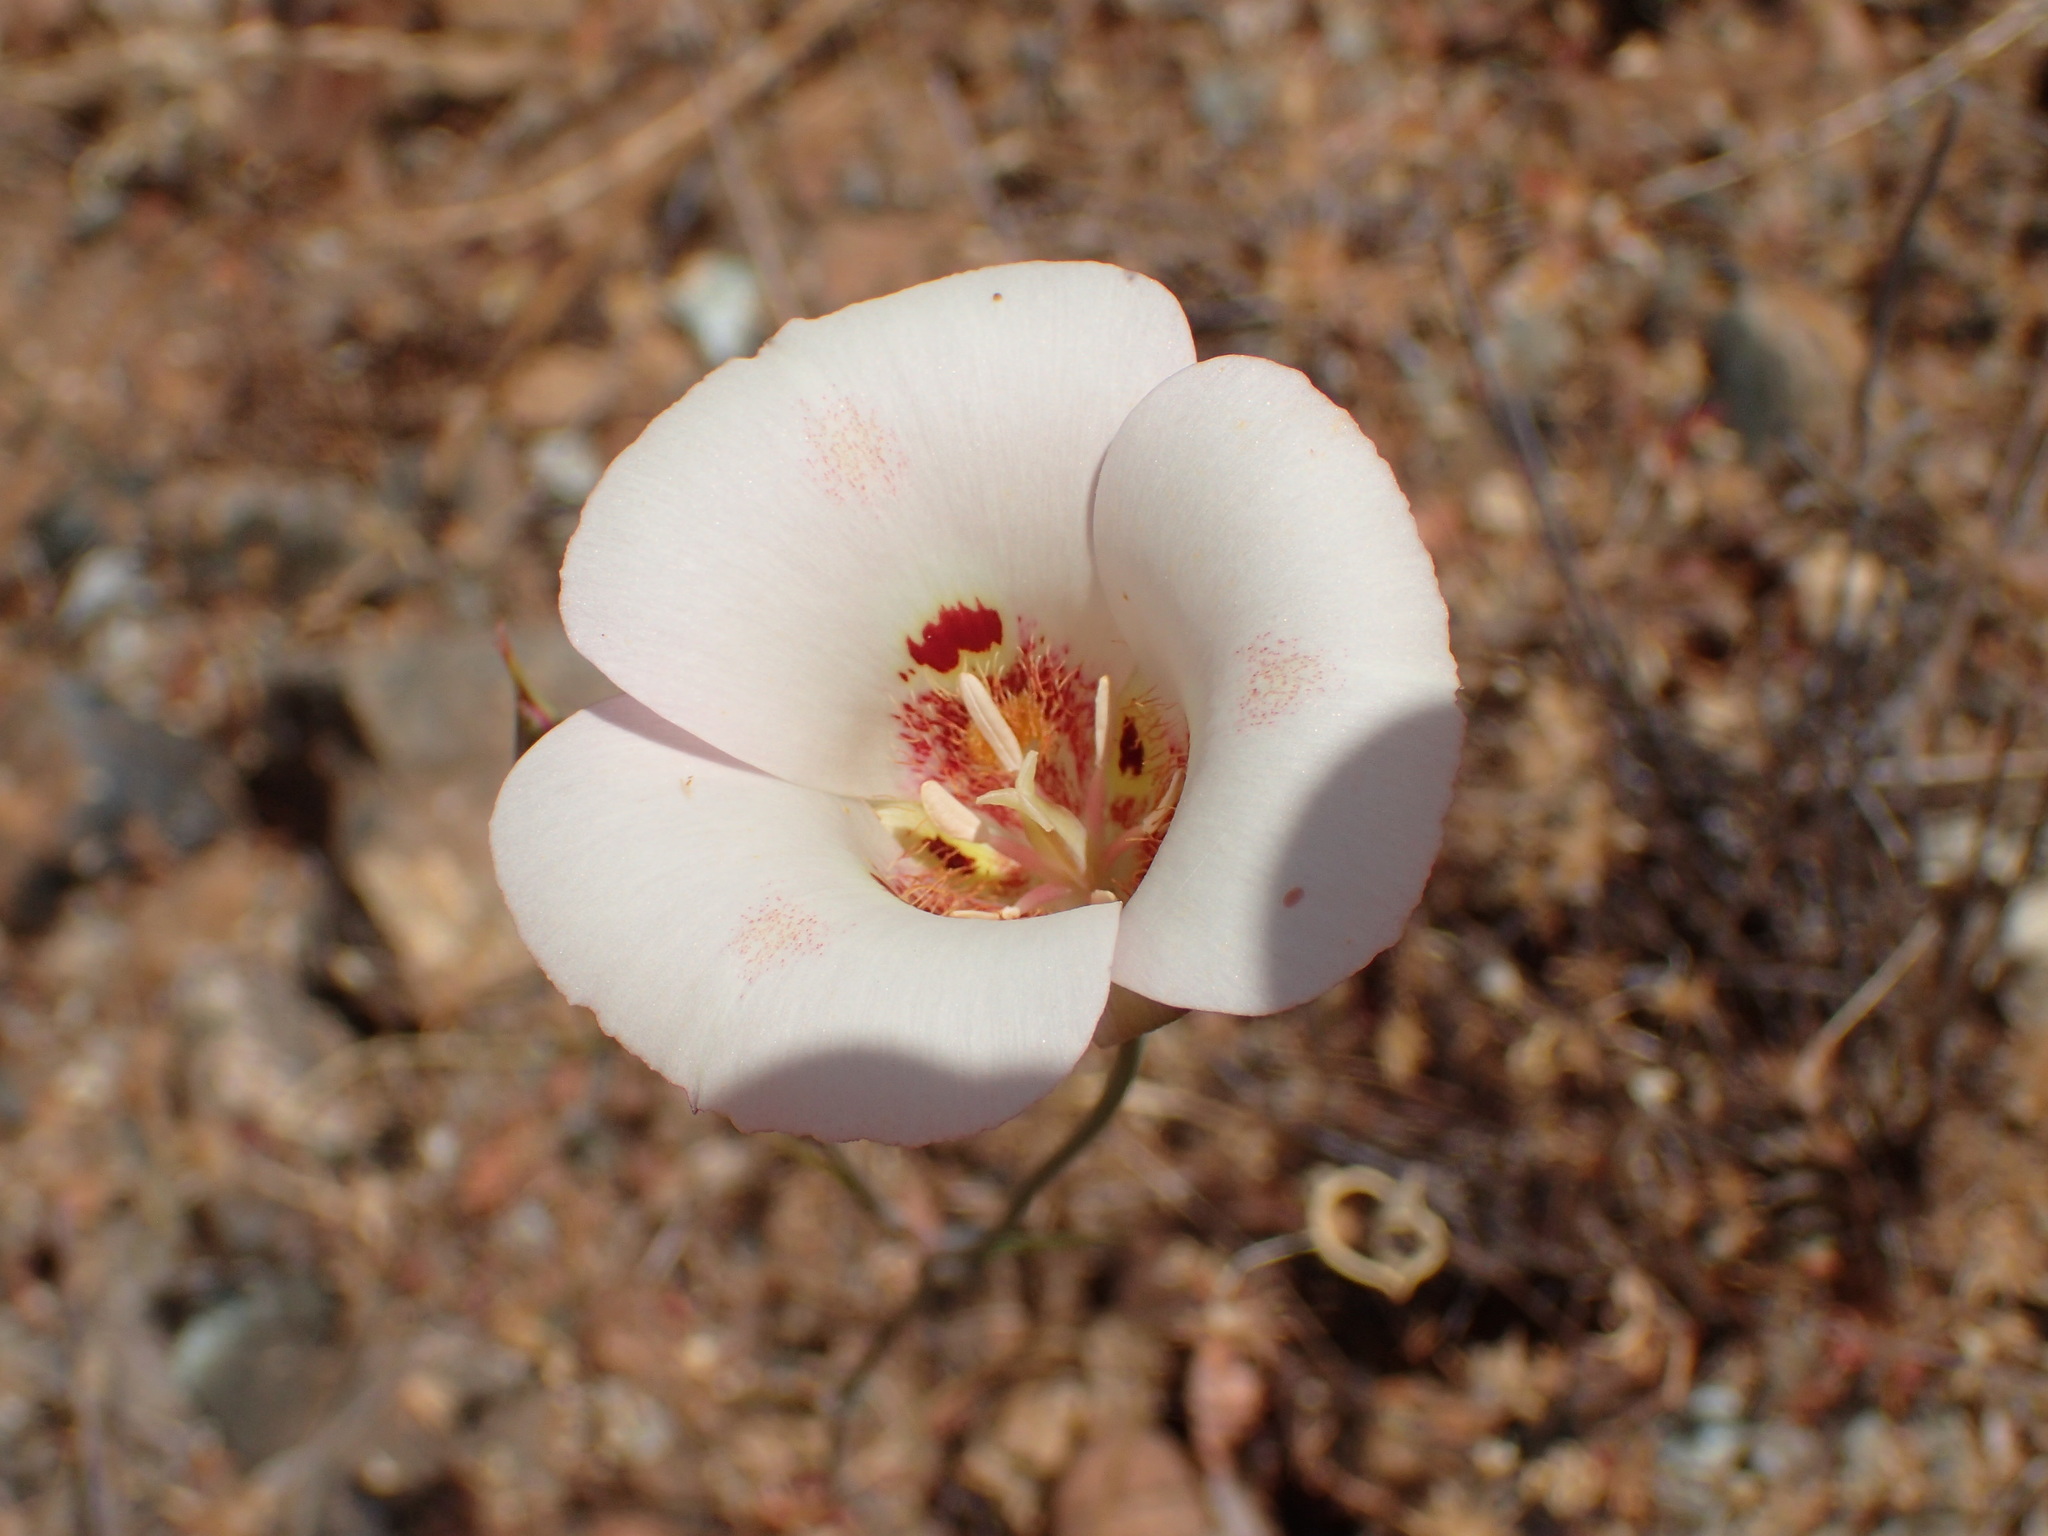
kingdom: Plantae
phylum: Tracheophyta
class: Liliopsida
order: Liliales
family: Liliaceae
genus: Calochortus
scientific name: Calochortus venustus
